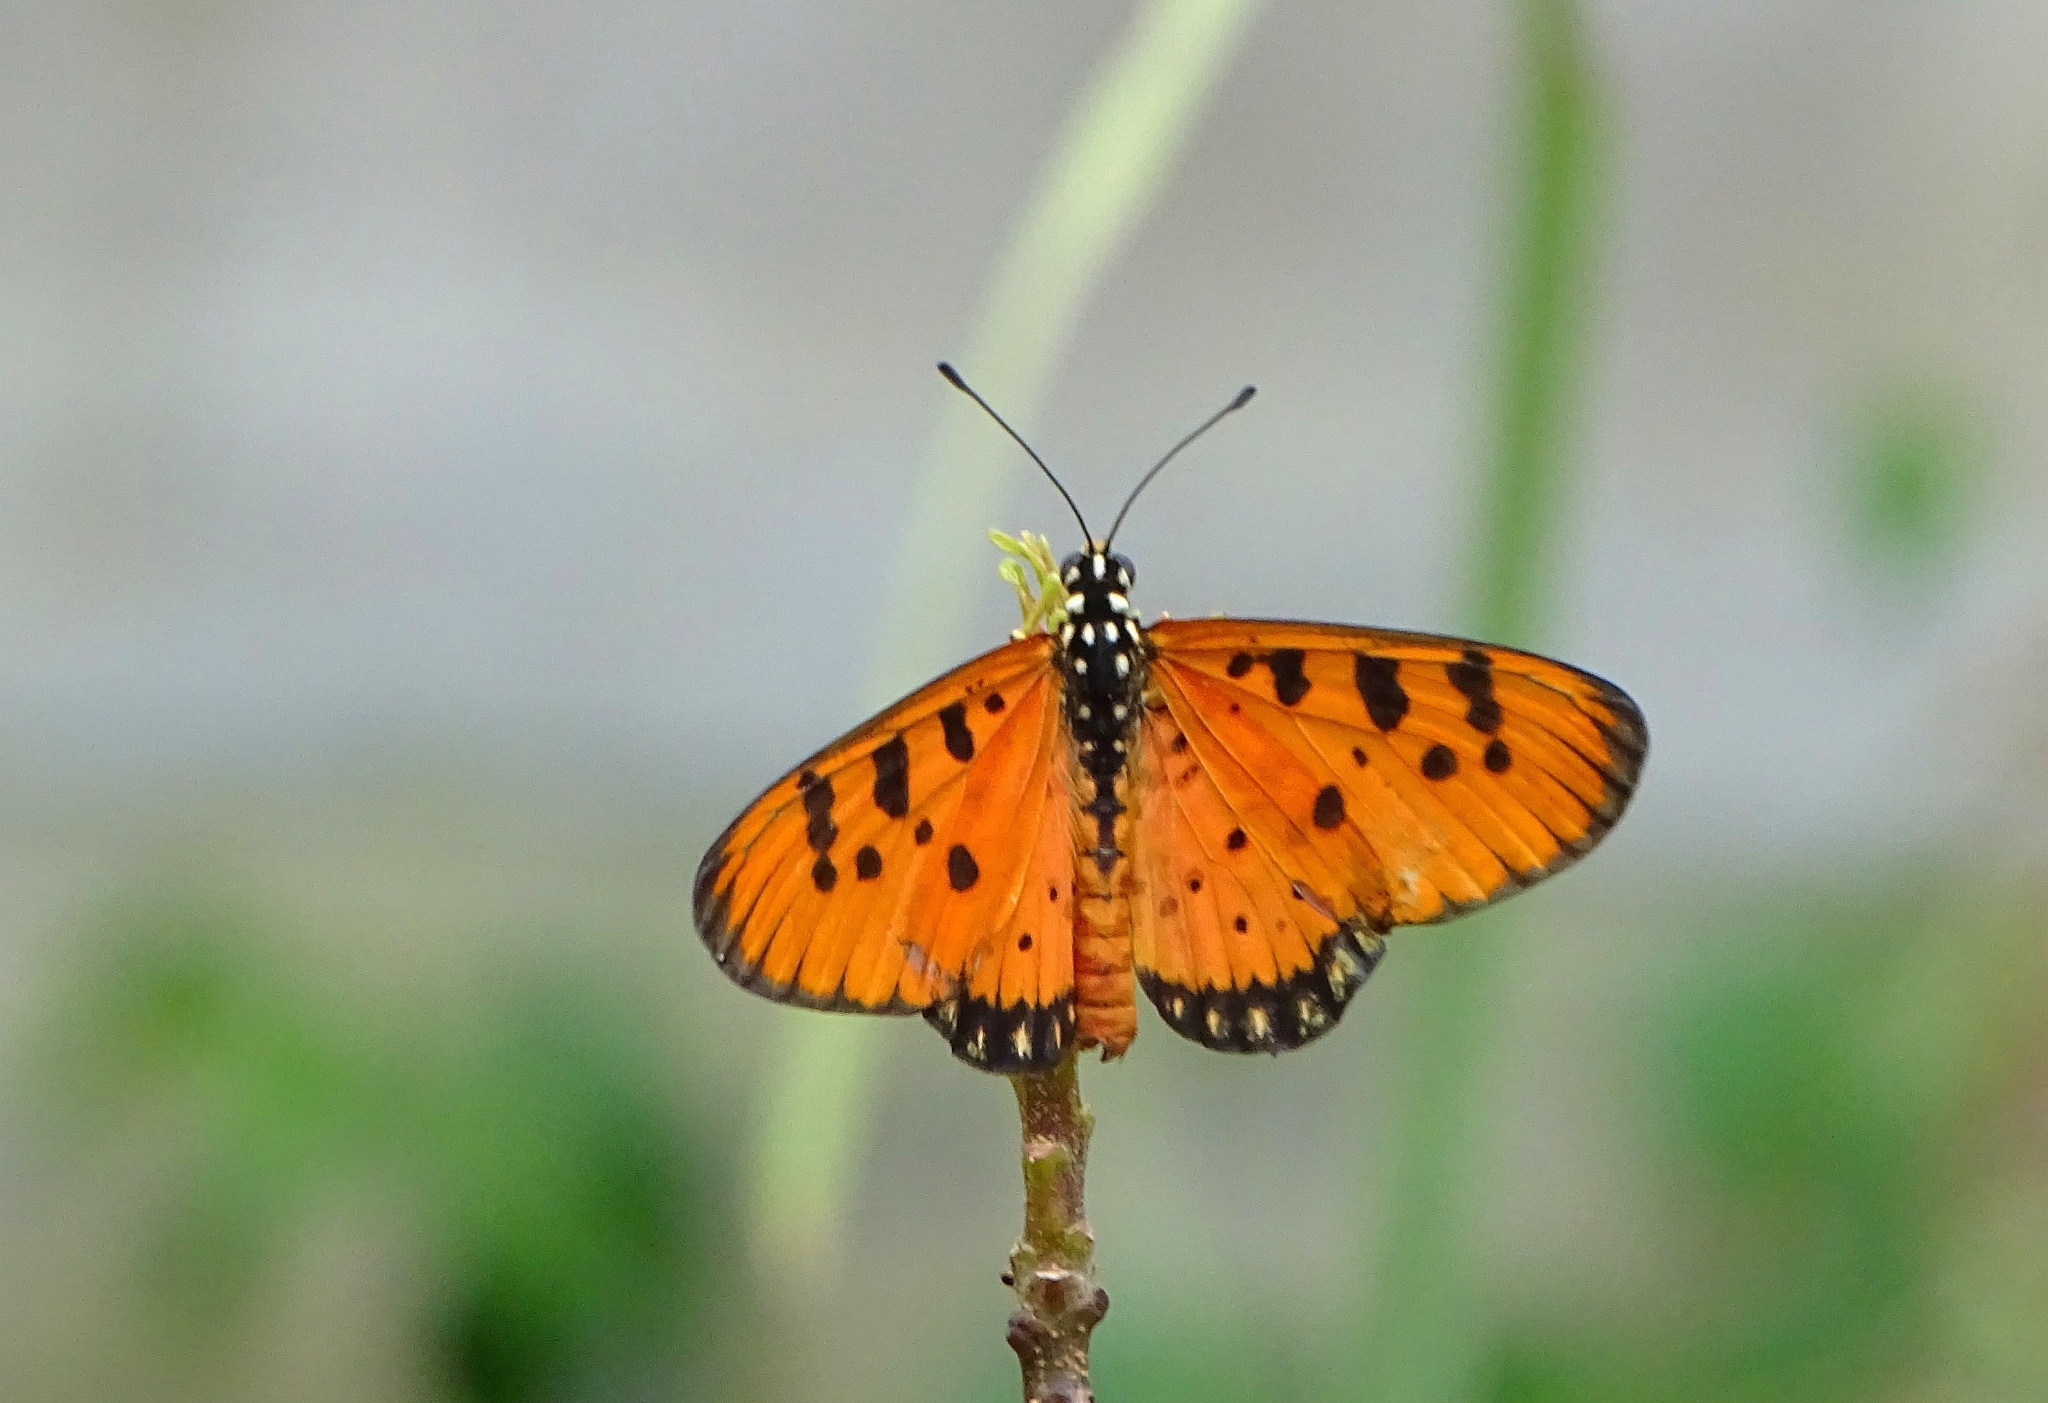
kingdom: Animalia
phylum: Arthropoda
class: Insecta
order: Lepidoptera
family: Nymphalidae
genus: Acraea
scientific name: Acraea terpsicore
